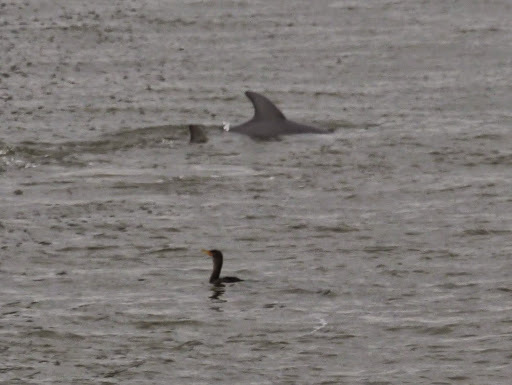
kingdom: Animalia
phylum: Chordata
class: Mammalia
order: Cetacea
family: Delphinidae
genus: Tursiops
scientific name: Tursiops truncatus
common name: Bottlenose dolphin
